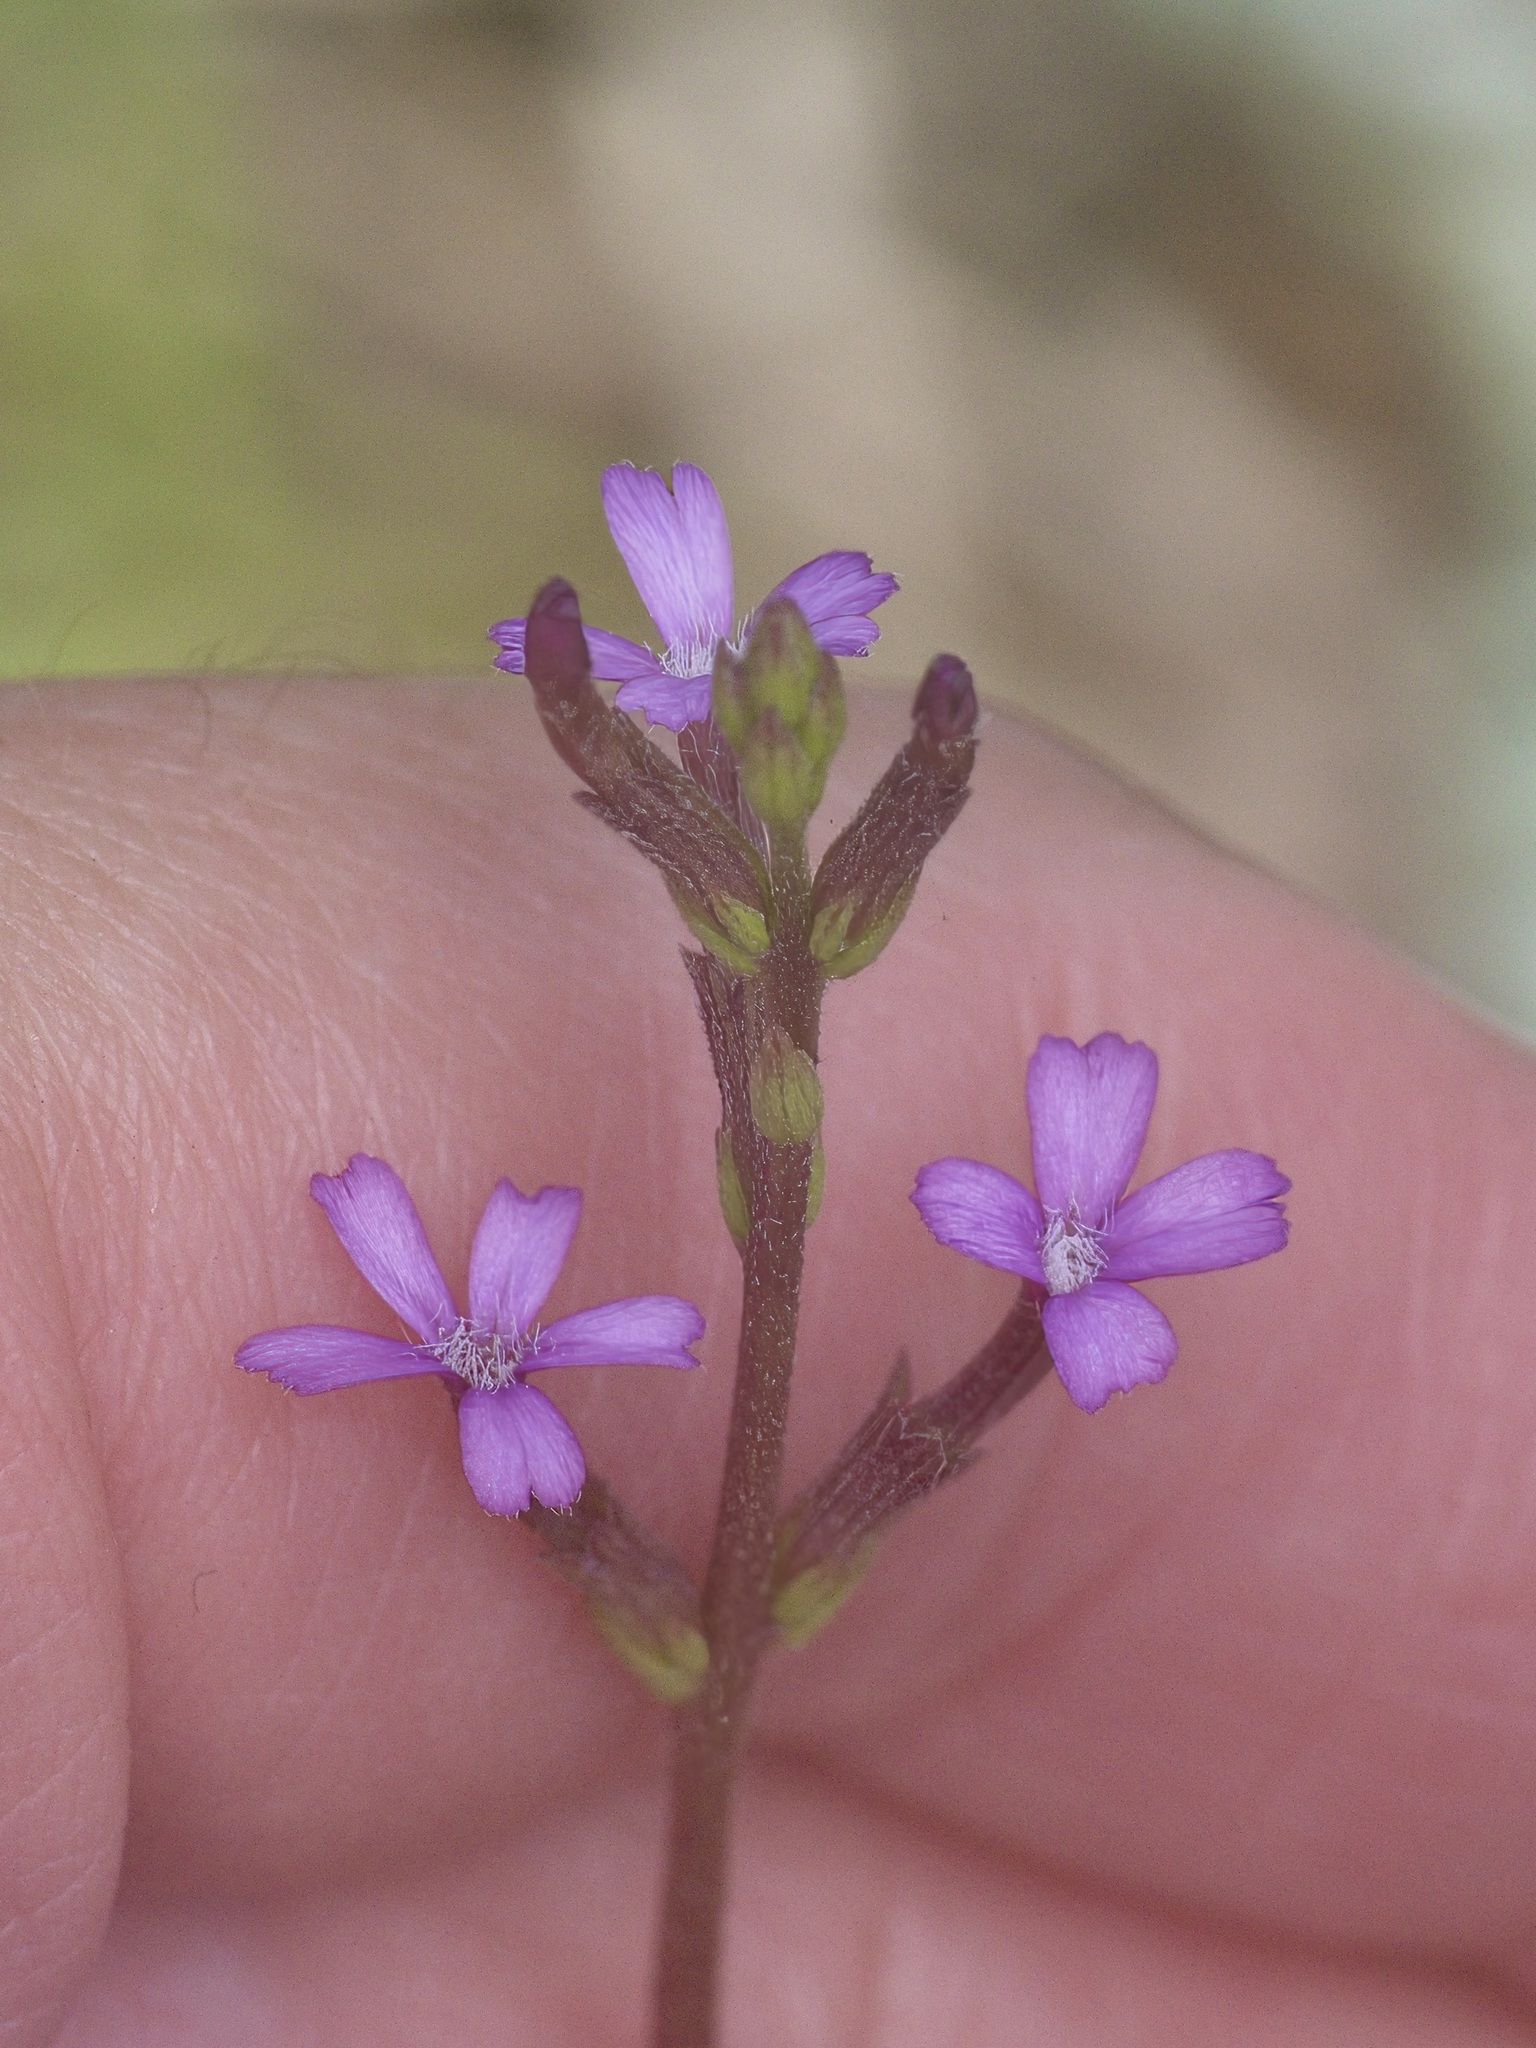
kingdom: Plantae
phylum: Tracheophyta
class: Magnoliopsida
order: Lamiales
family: Orobanchaceae
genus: Buchnera
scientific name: Buchnera floridana
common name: Florida bluehearts
